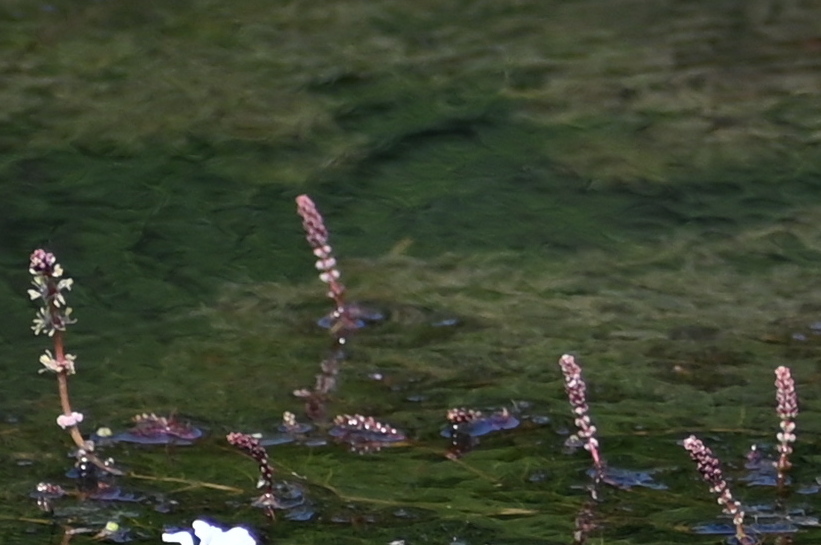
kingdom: Plantae
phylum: Tracheophyta
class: Magnoliopsida
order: Saxifragales
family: Haloragaceae
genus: Myriophyllum
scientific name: Myriophyllum spicatum
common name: Spiked water-milfoil
